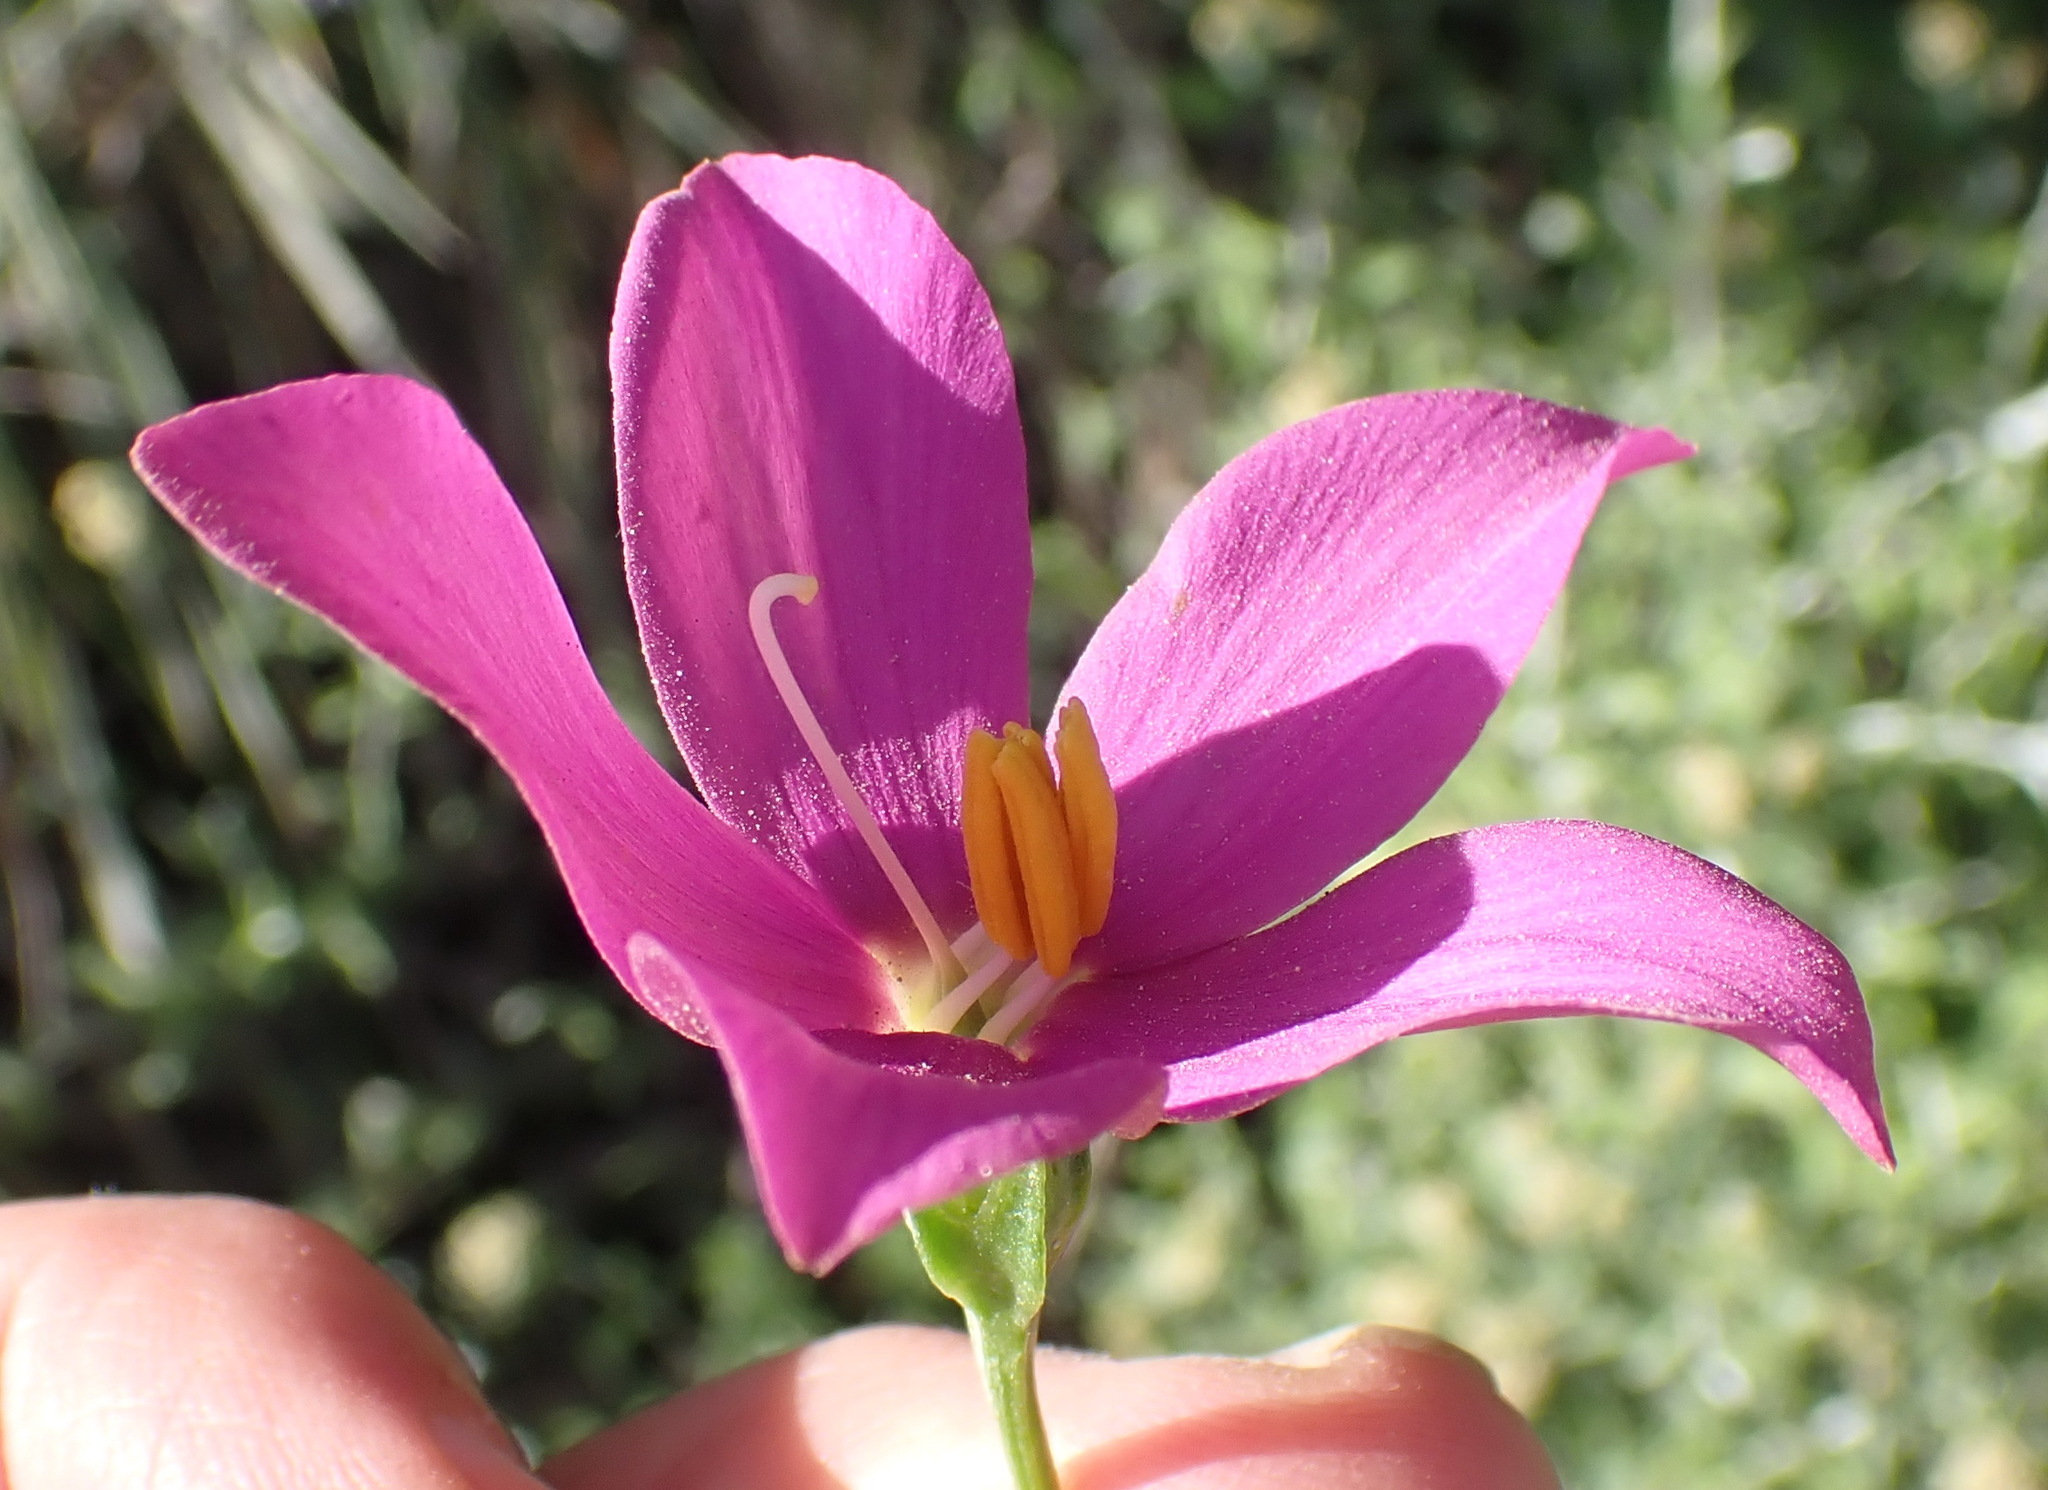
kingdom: Plantae
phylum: Tracheophyta
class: Magnoliopsida
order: Gentianales
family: Gentianaceae
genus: Chironia
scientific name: Chironia melampyrifolia
